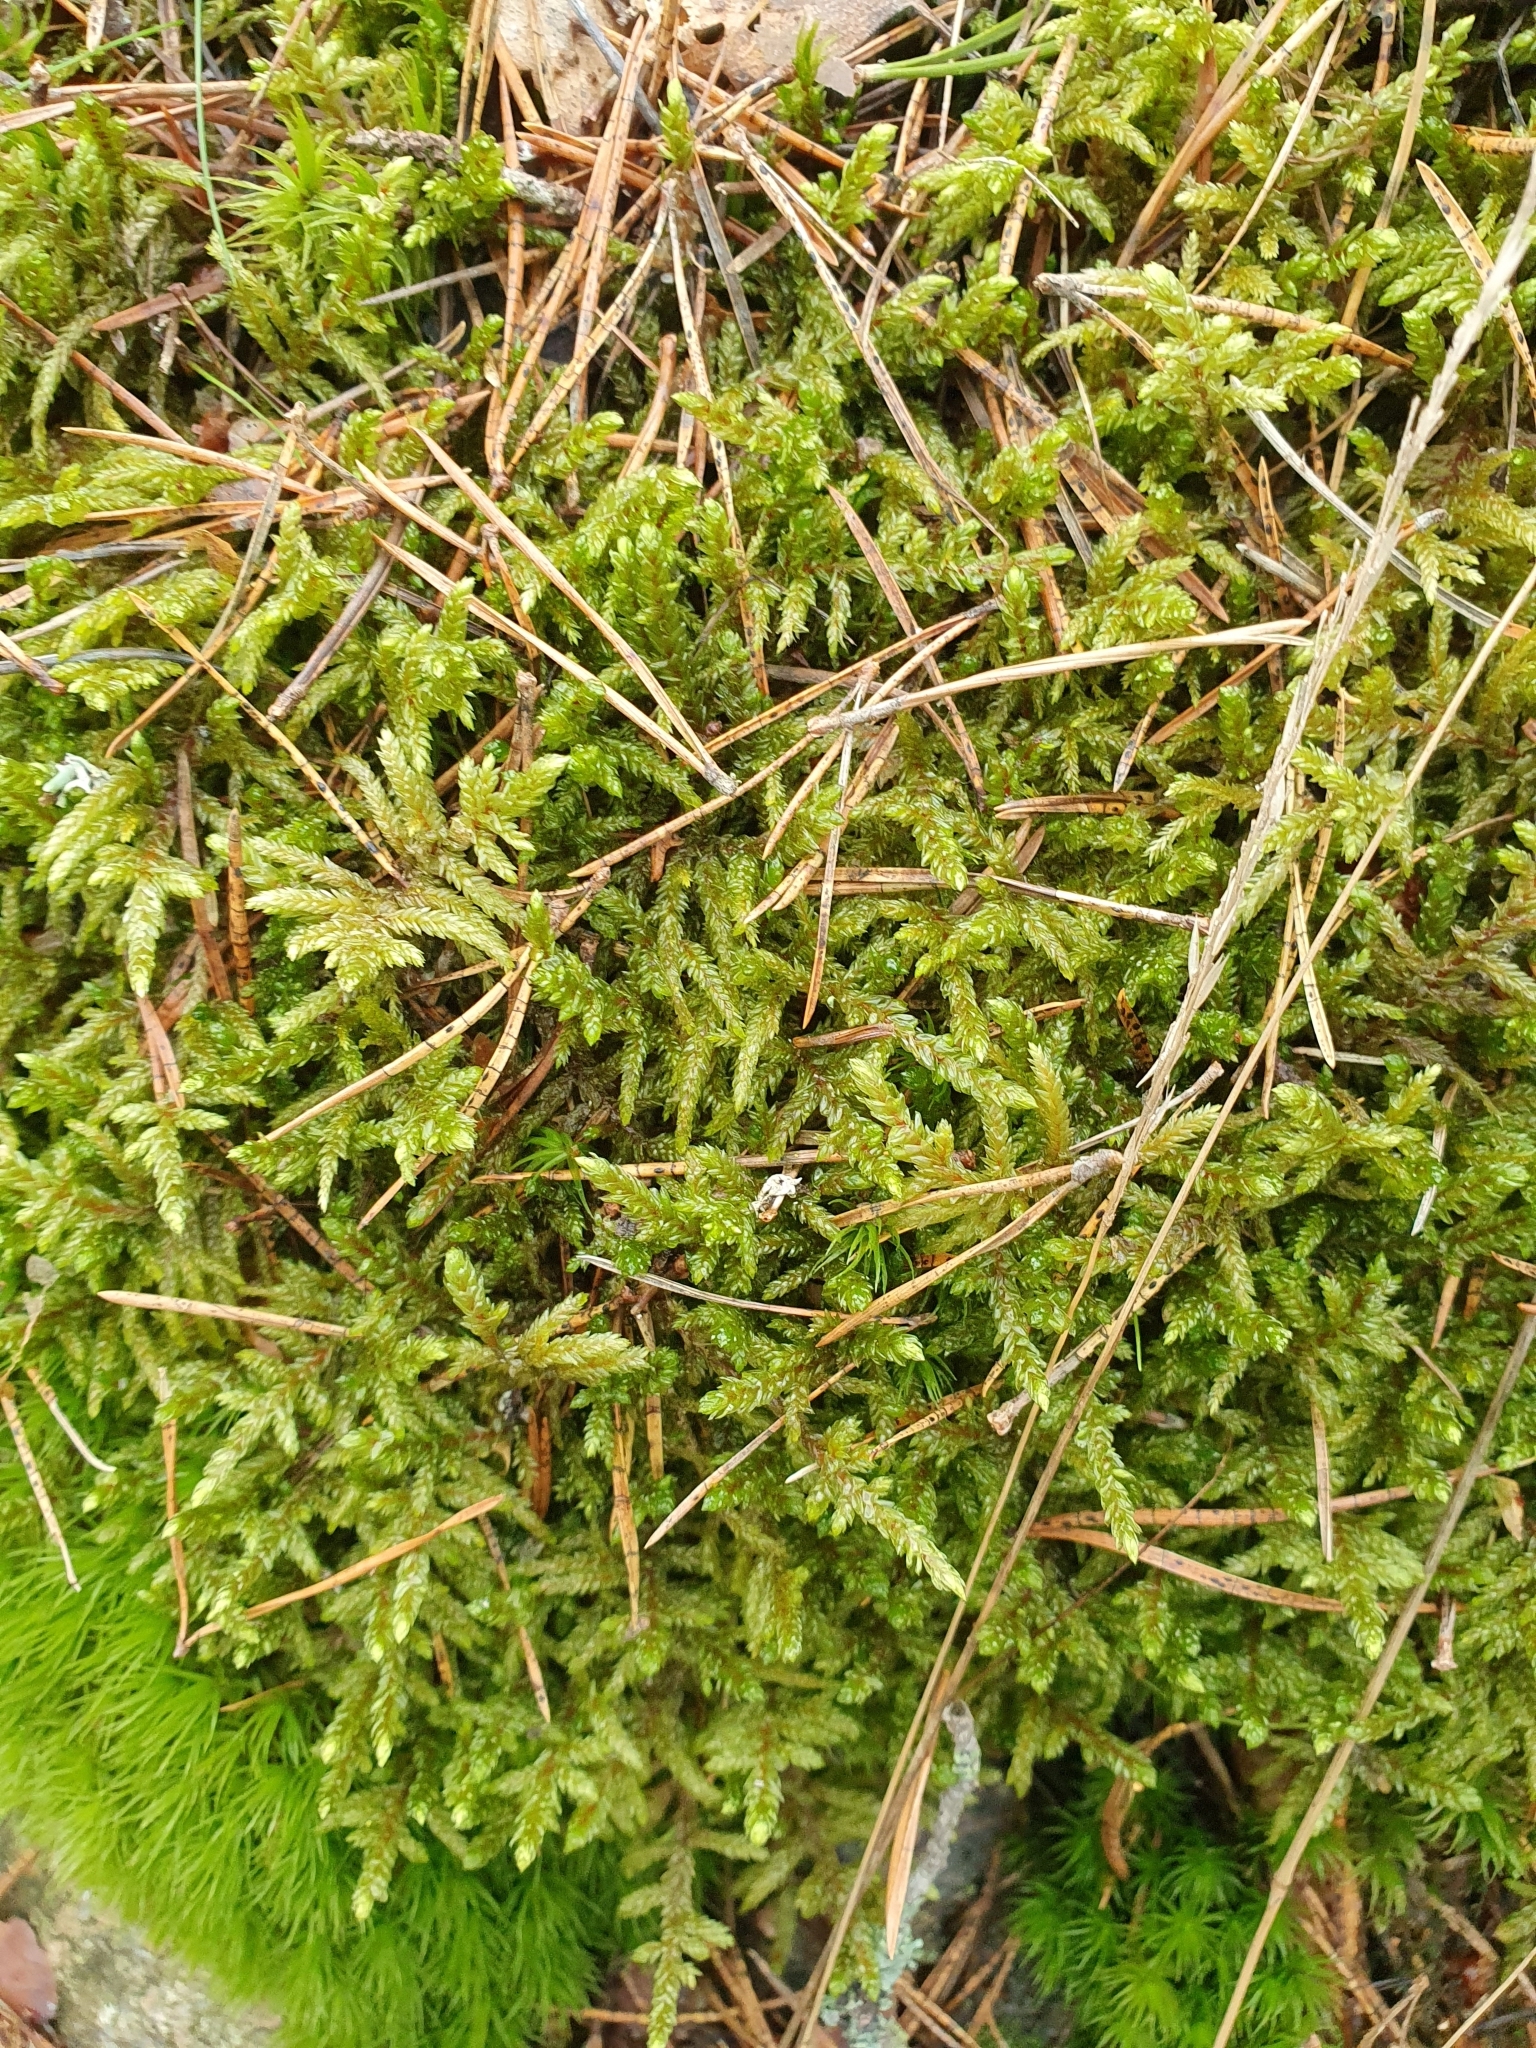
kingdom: Plantae
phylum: Bryophyta
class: Bryopsida
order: Hypnales
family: Hylocomiaceae
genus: Pleurozium
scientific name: Pleurozium schreberi
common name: Red-stemmed feather moss
